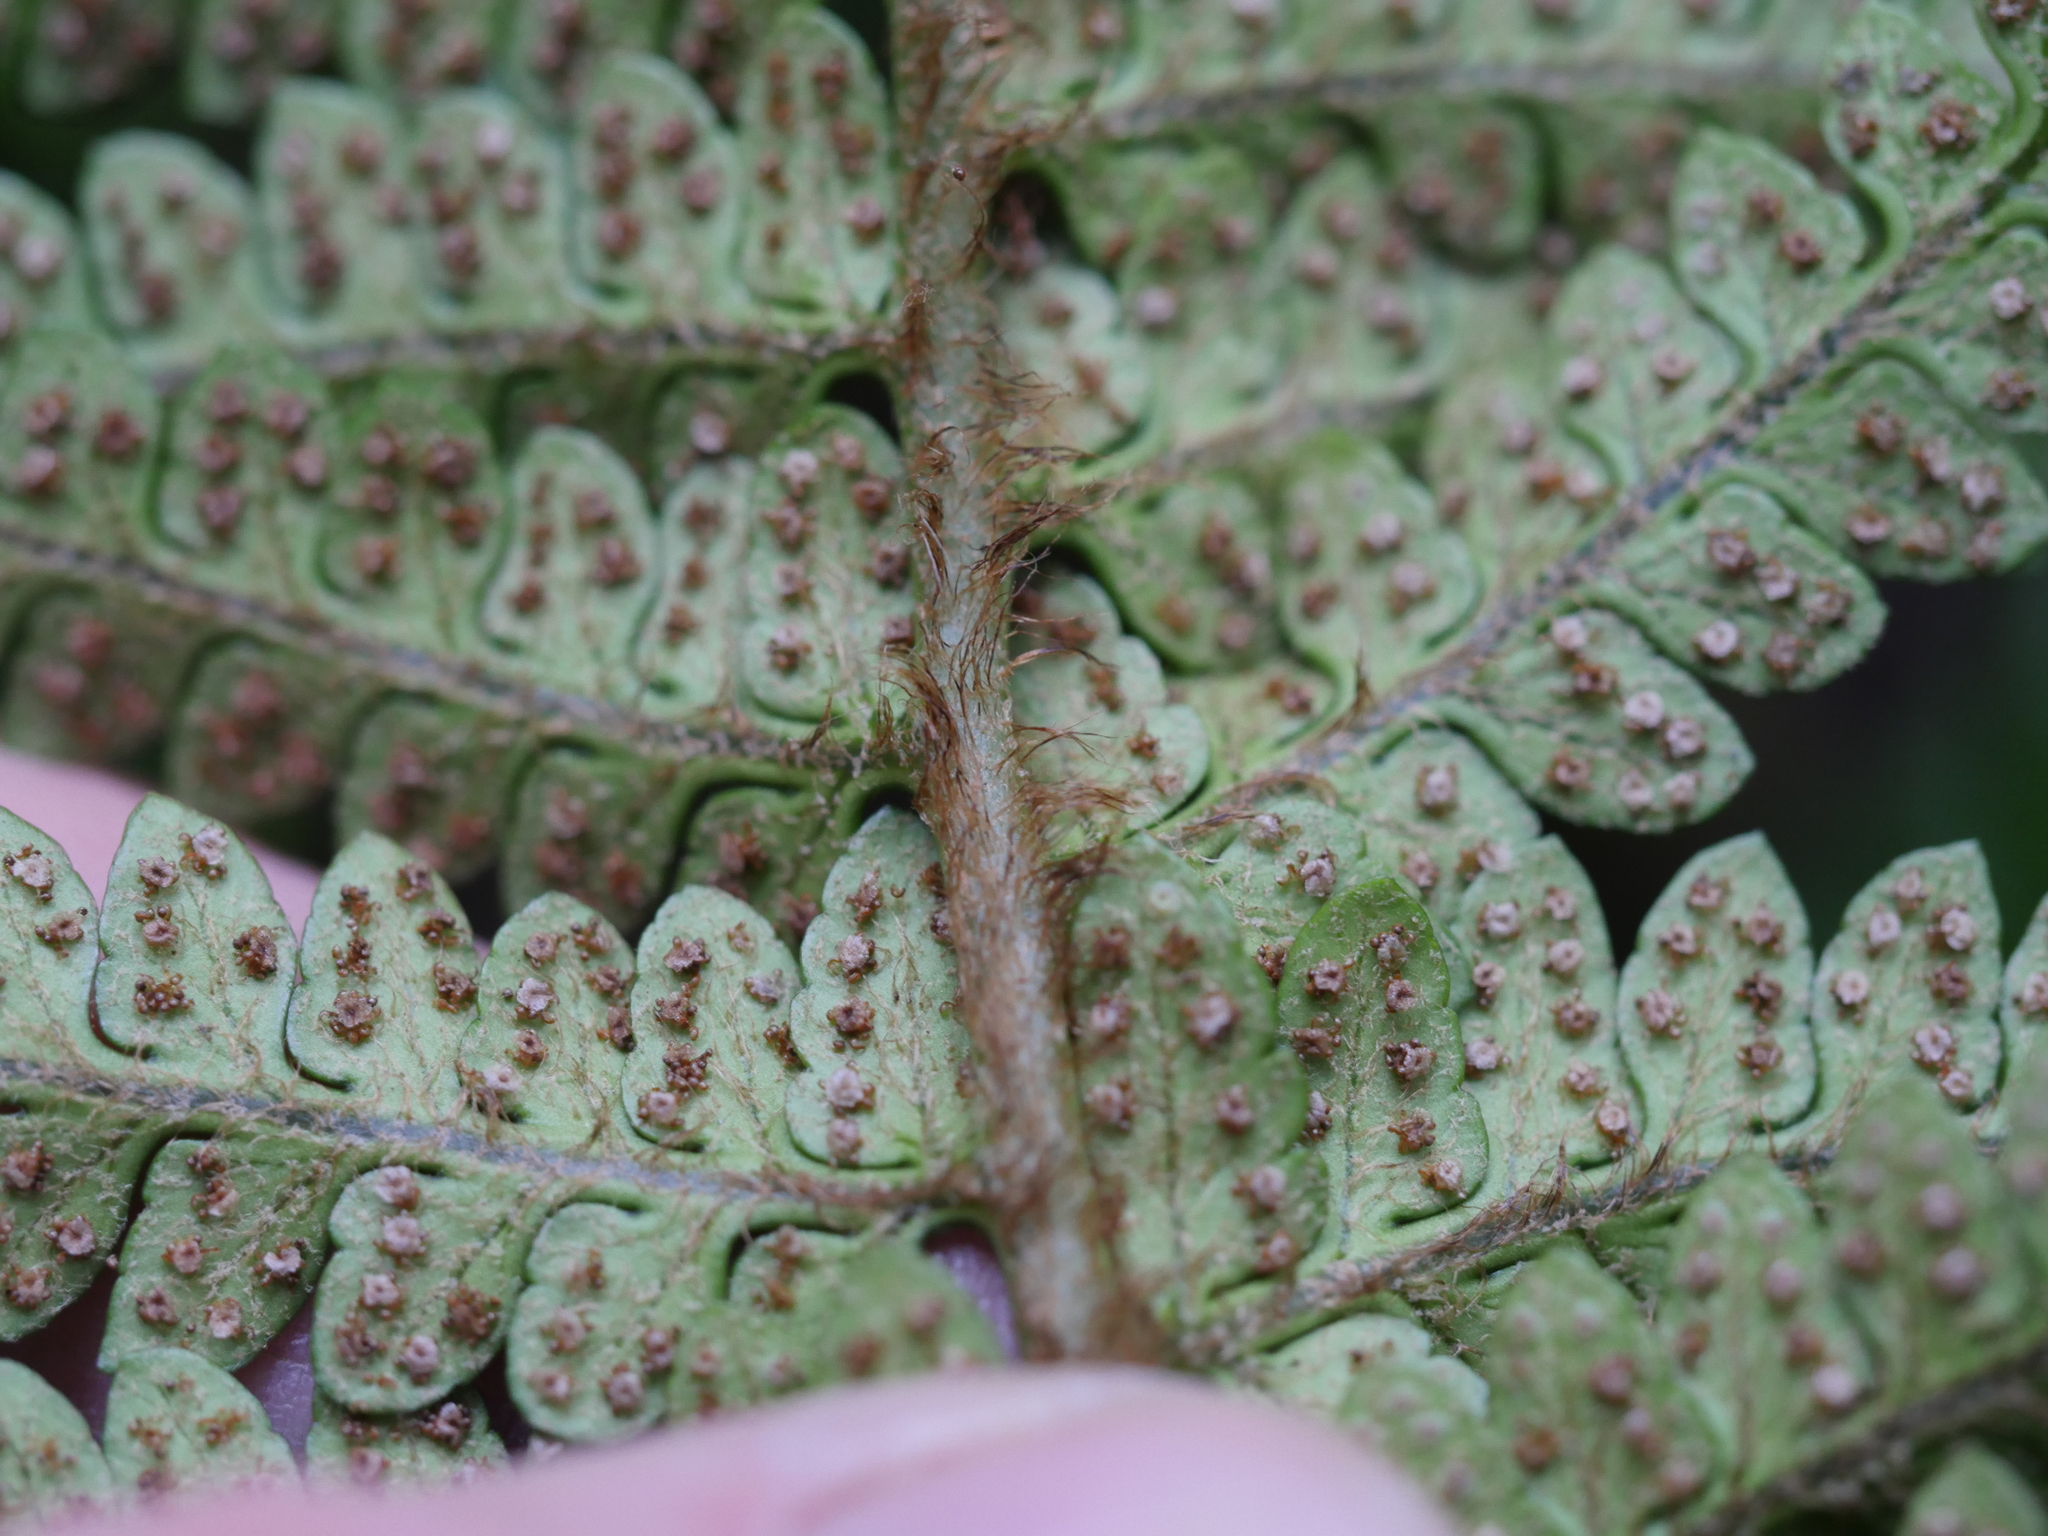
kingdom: Plantae
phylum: Tracheophyta
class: Polypodiopsida
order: Polypodiales
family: Dryopteridaceae
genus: Polystichum
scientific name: Polystichum wawranum
